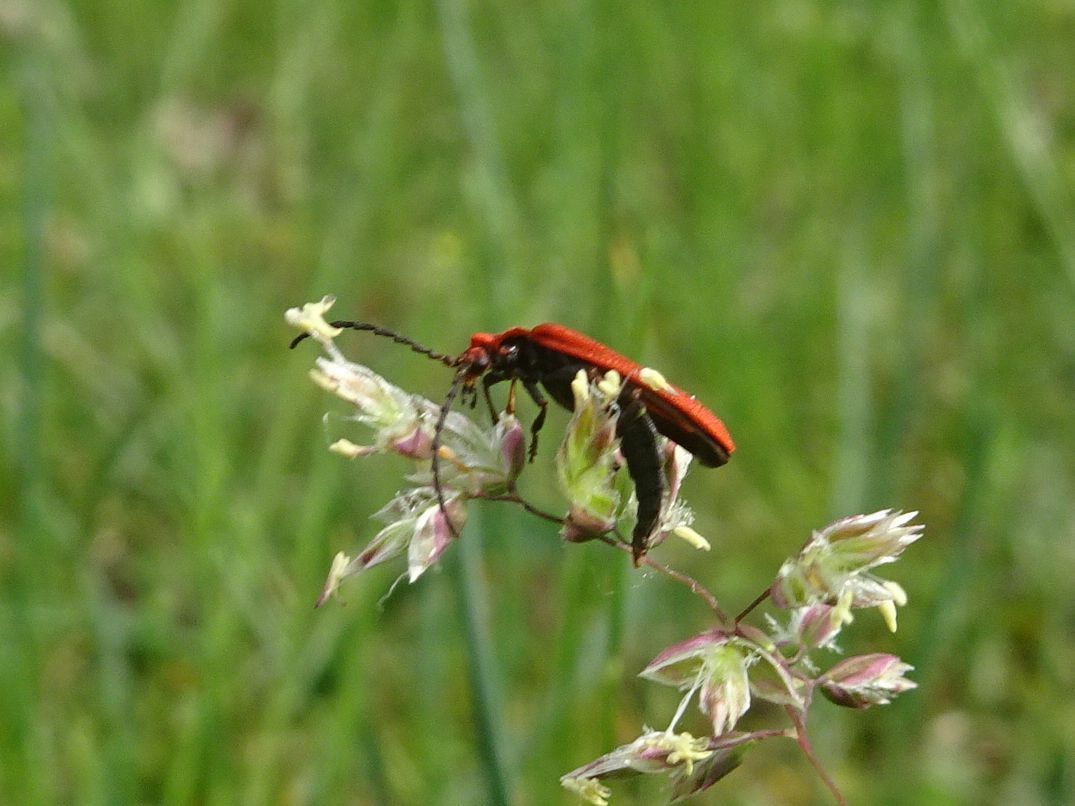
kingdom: Animalia
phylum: Arthropoda
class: Insecta
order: Coleoptera
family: Lycidae
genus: Lopheros
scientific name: Lopheros rubens
